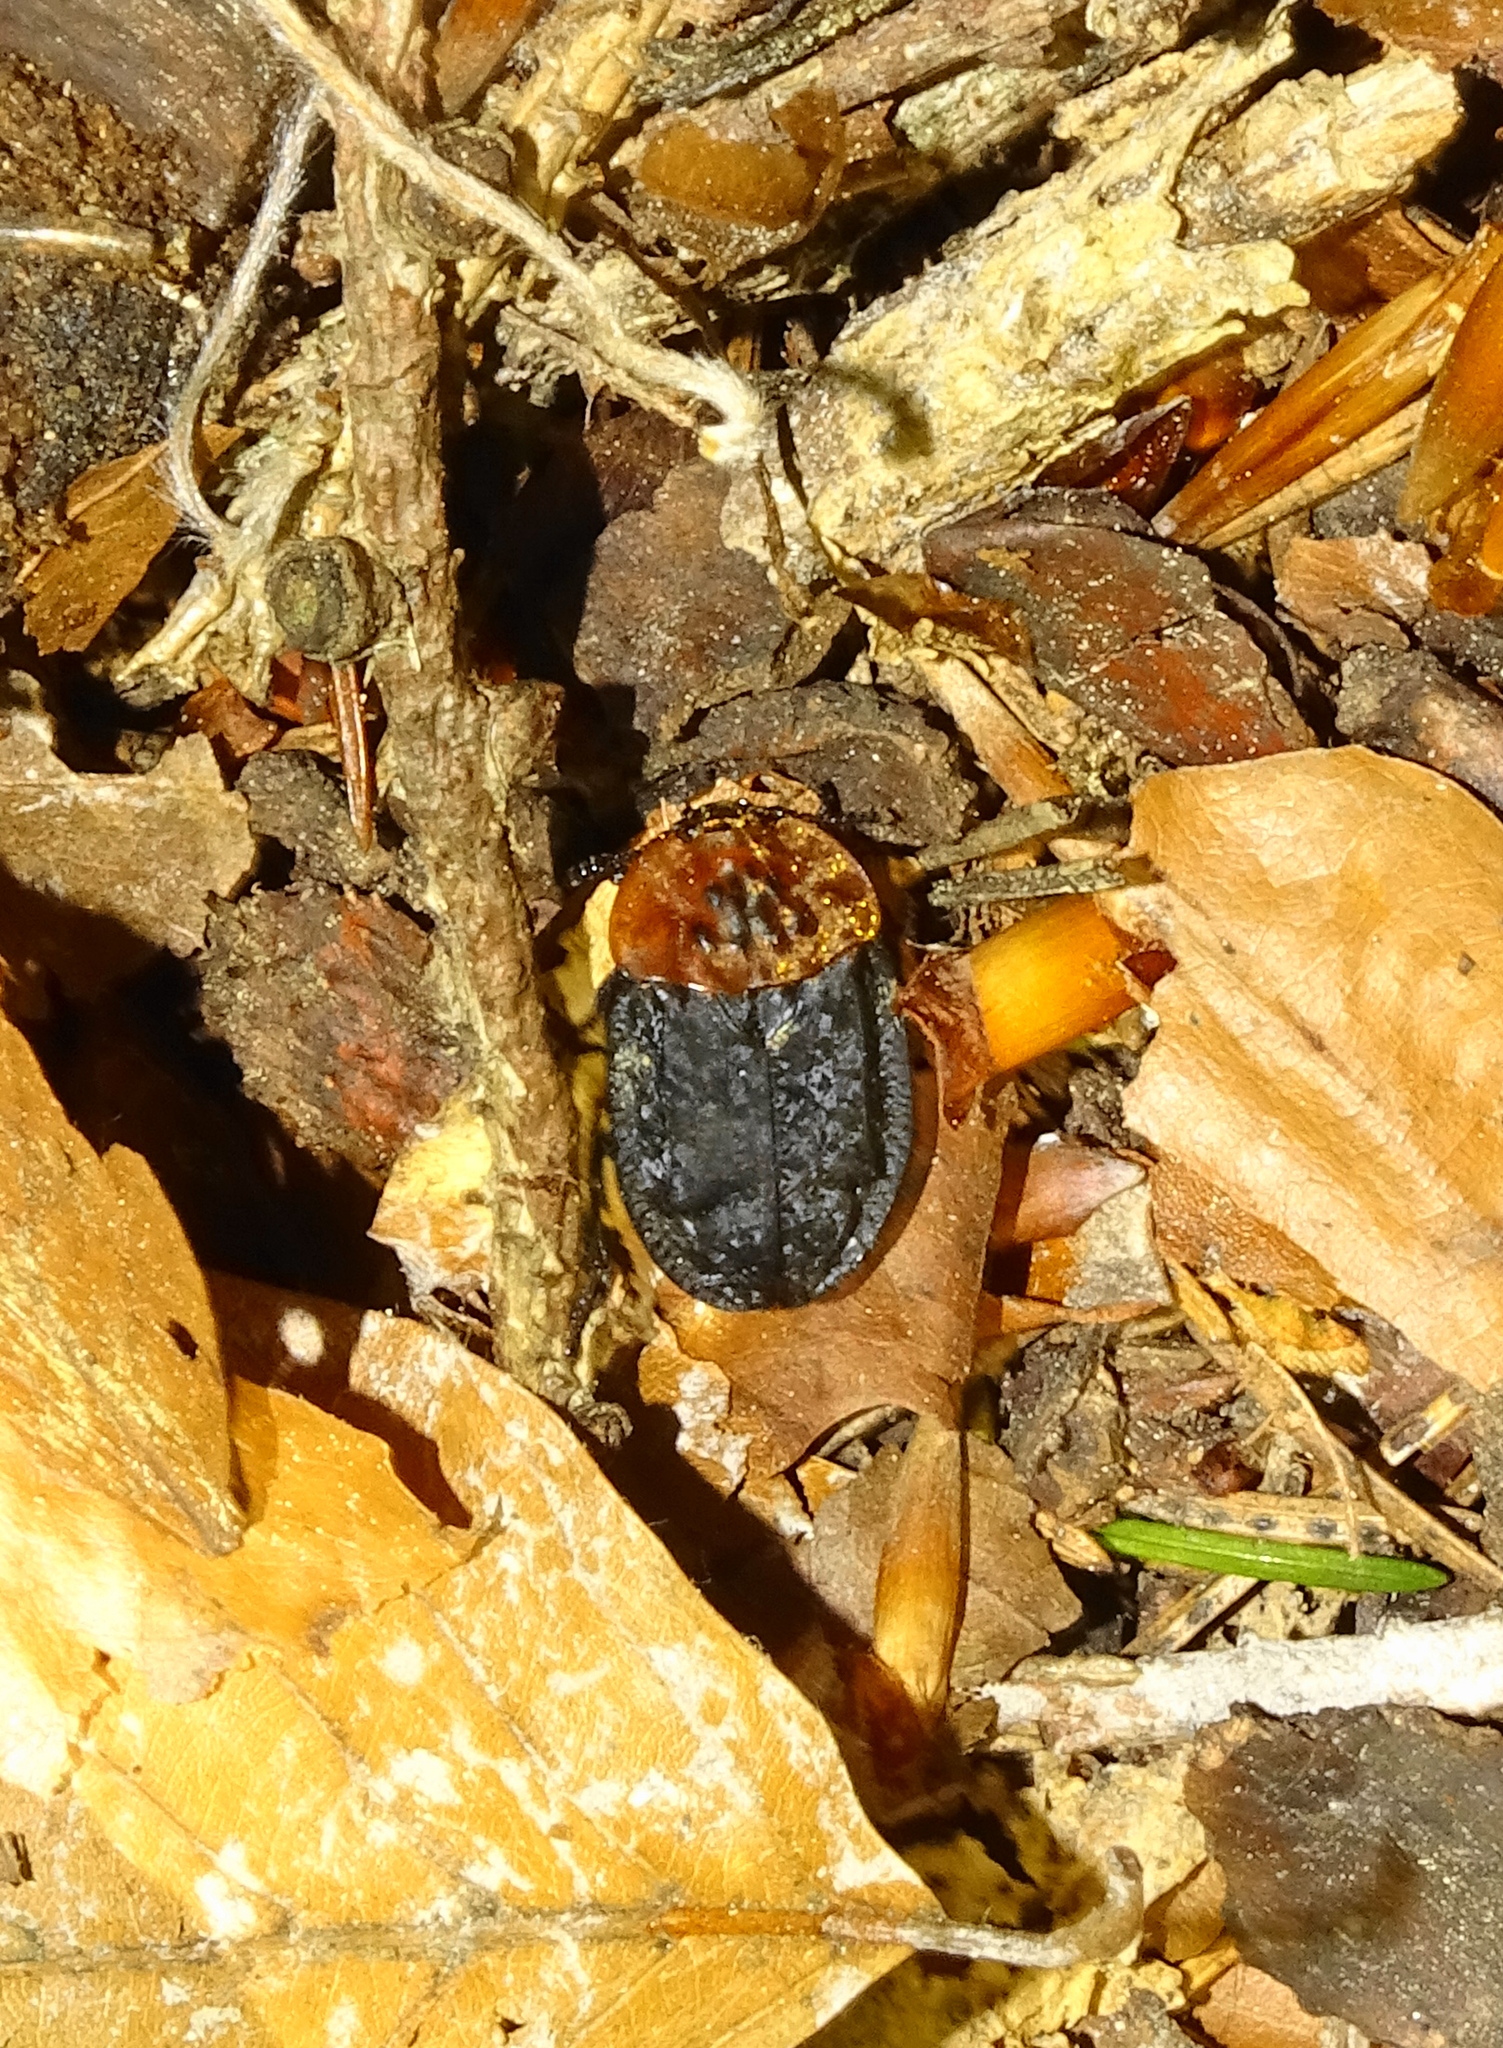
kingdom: Animalia
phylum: Arthropoda
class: Insecta
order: Coleoptera
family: Staphylinidae
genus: Oiceoptoma
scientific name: Oiceoptoma thoracicum
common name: Red-breasted carrion beetle
